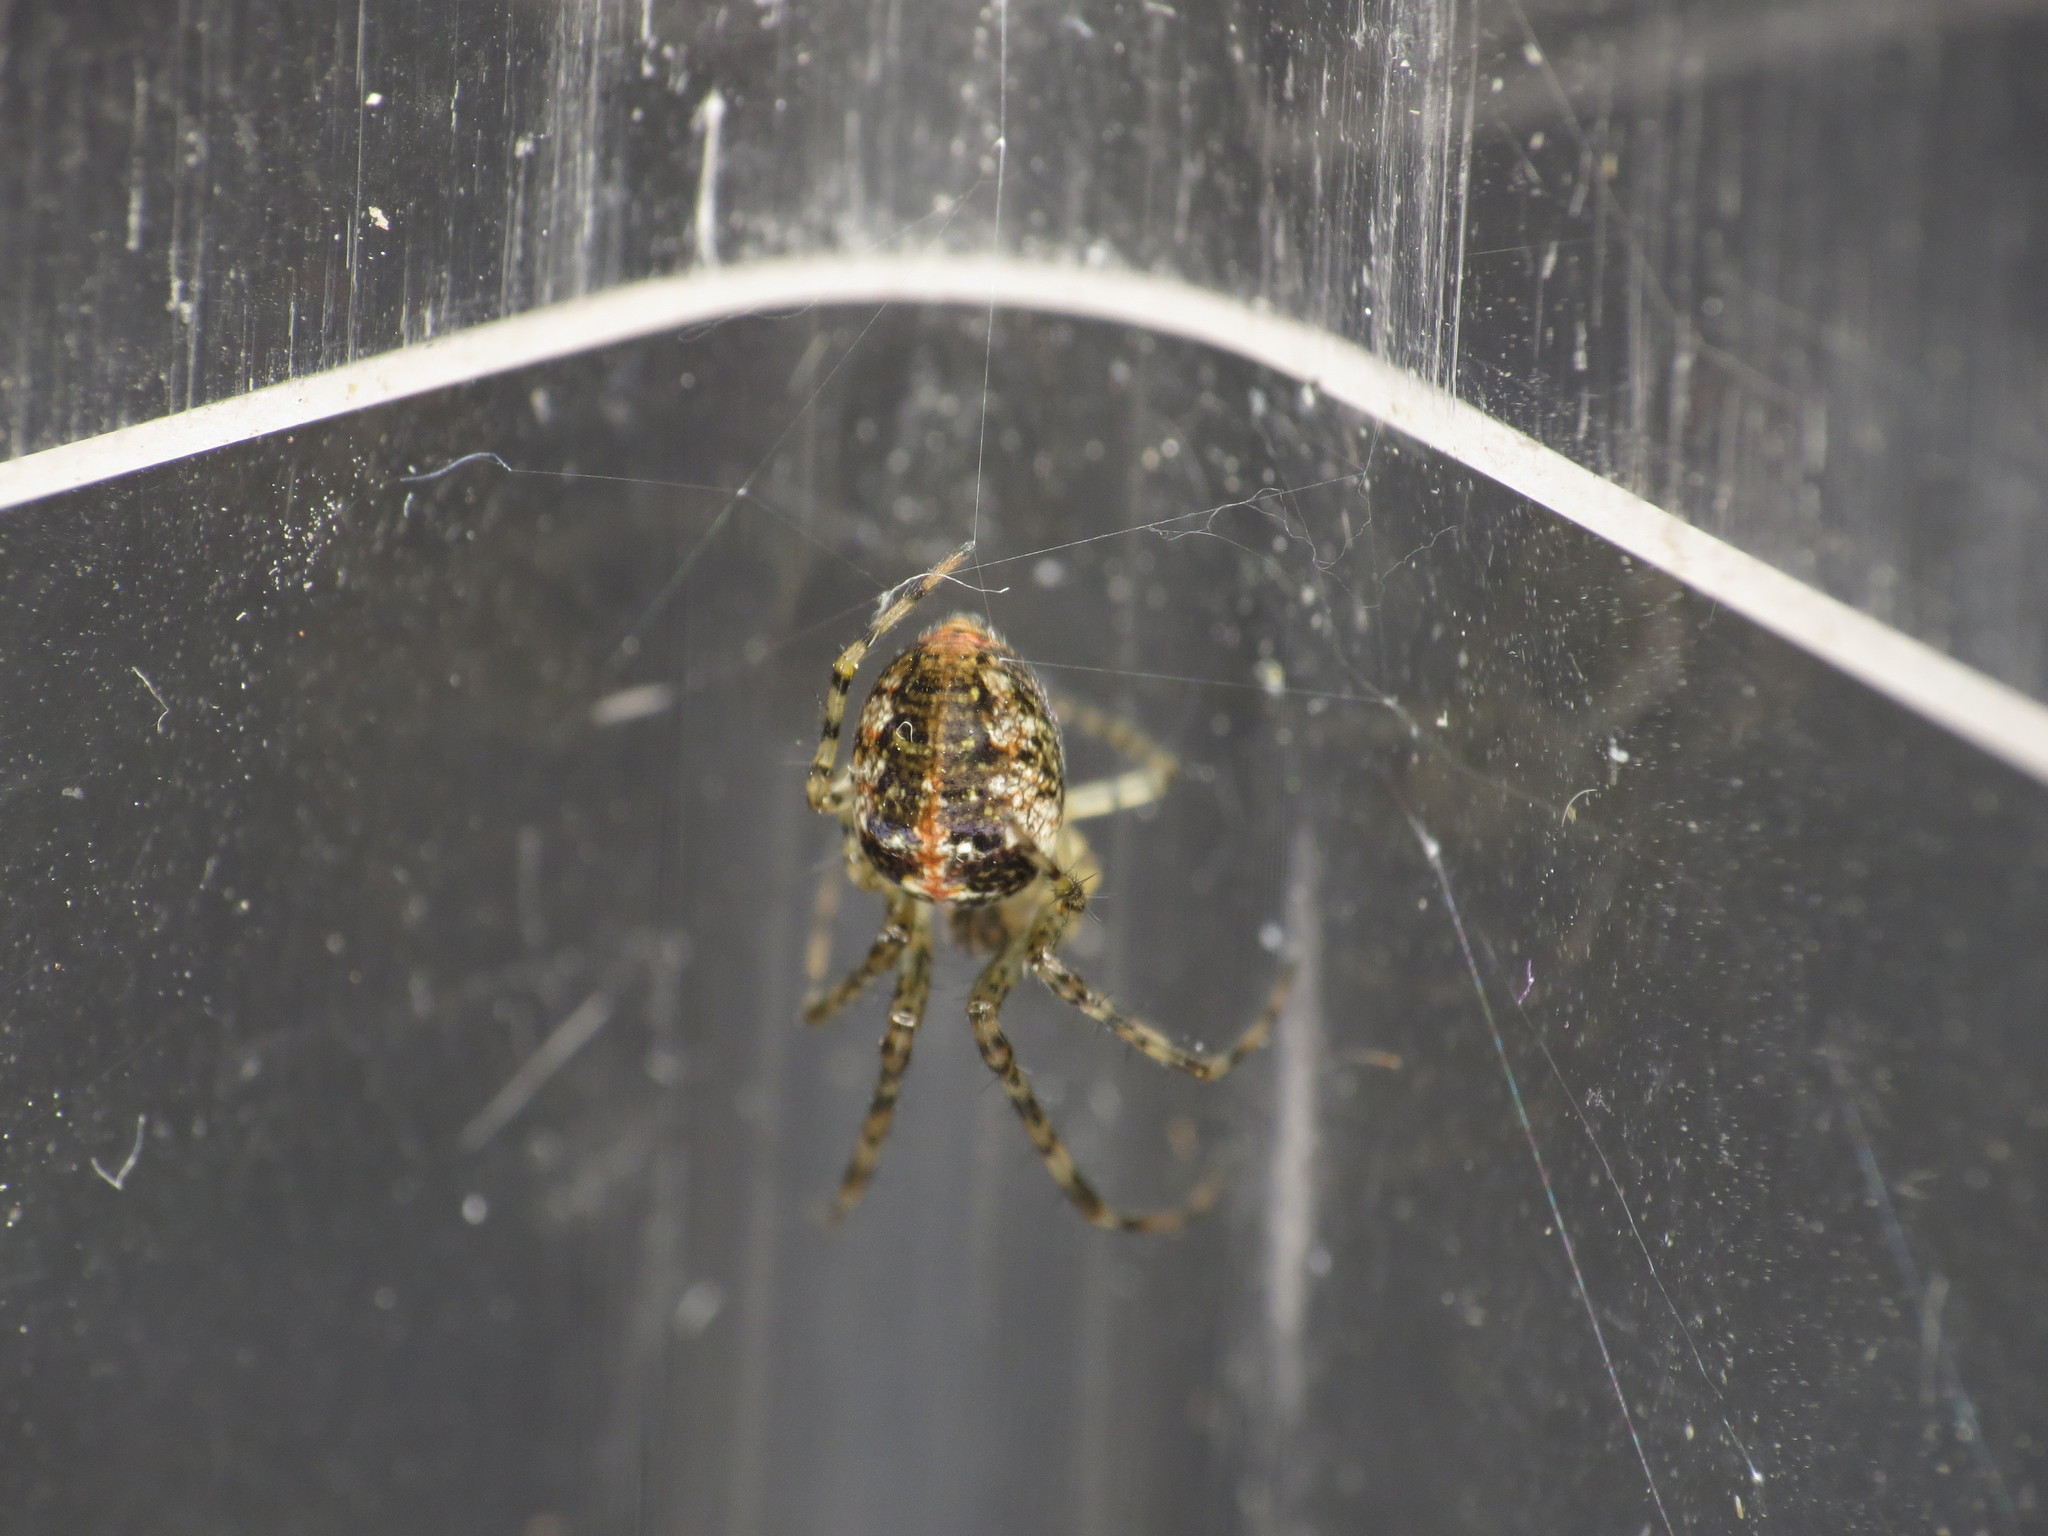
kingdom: Animalia
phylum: Arthropoda
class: Arachnida
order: Araneae
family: Tetragnathidae
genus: Metellina
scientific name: Metellina merianae
